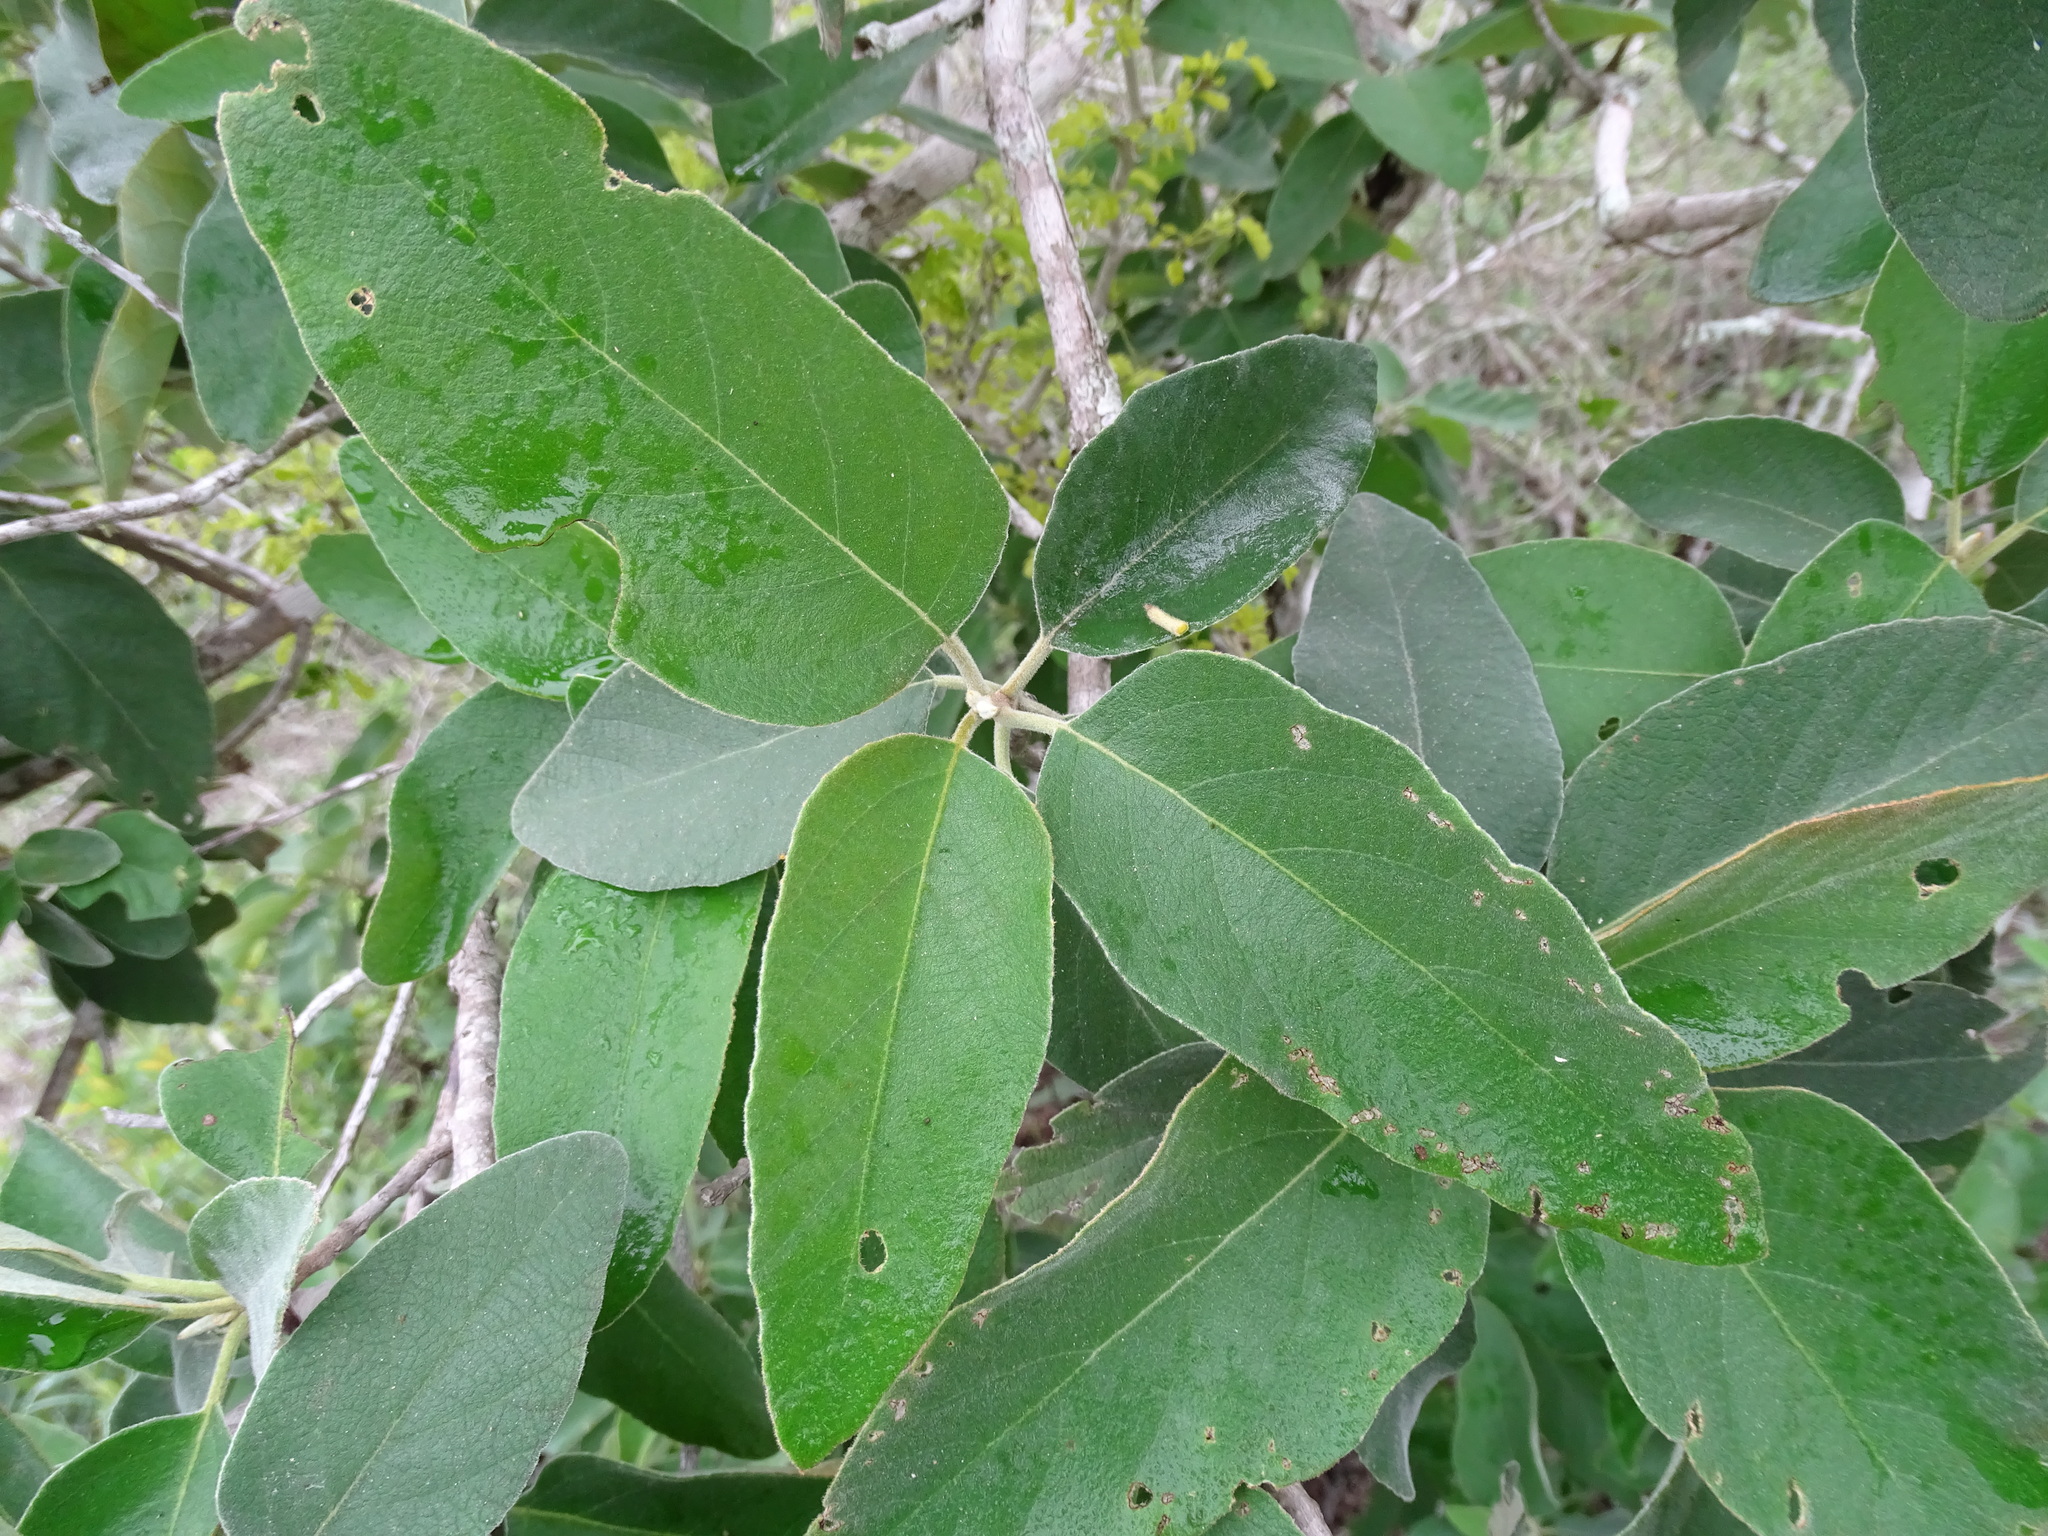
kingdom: Plantae
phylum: Tracheophyta
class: Magnoliopsida
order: Boraginales
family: Cordiaceae
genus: Cordia
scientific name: Cordia boissieri
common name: Mexican-olive
